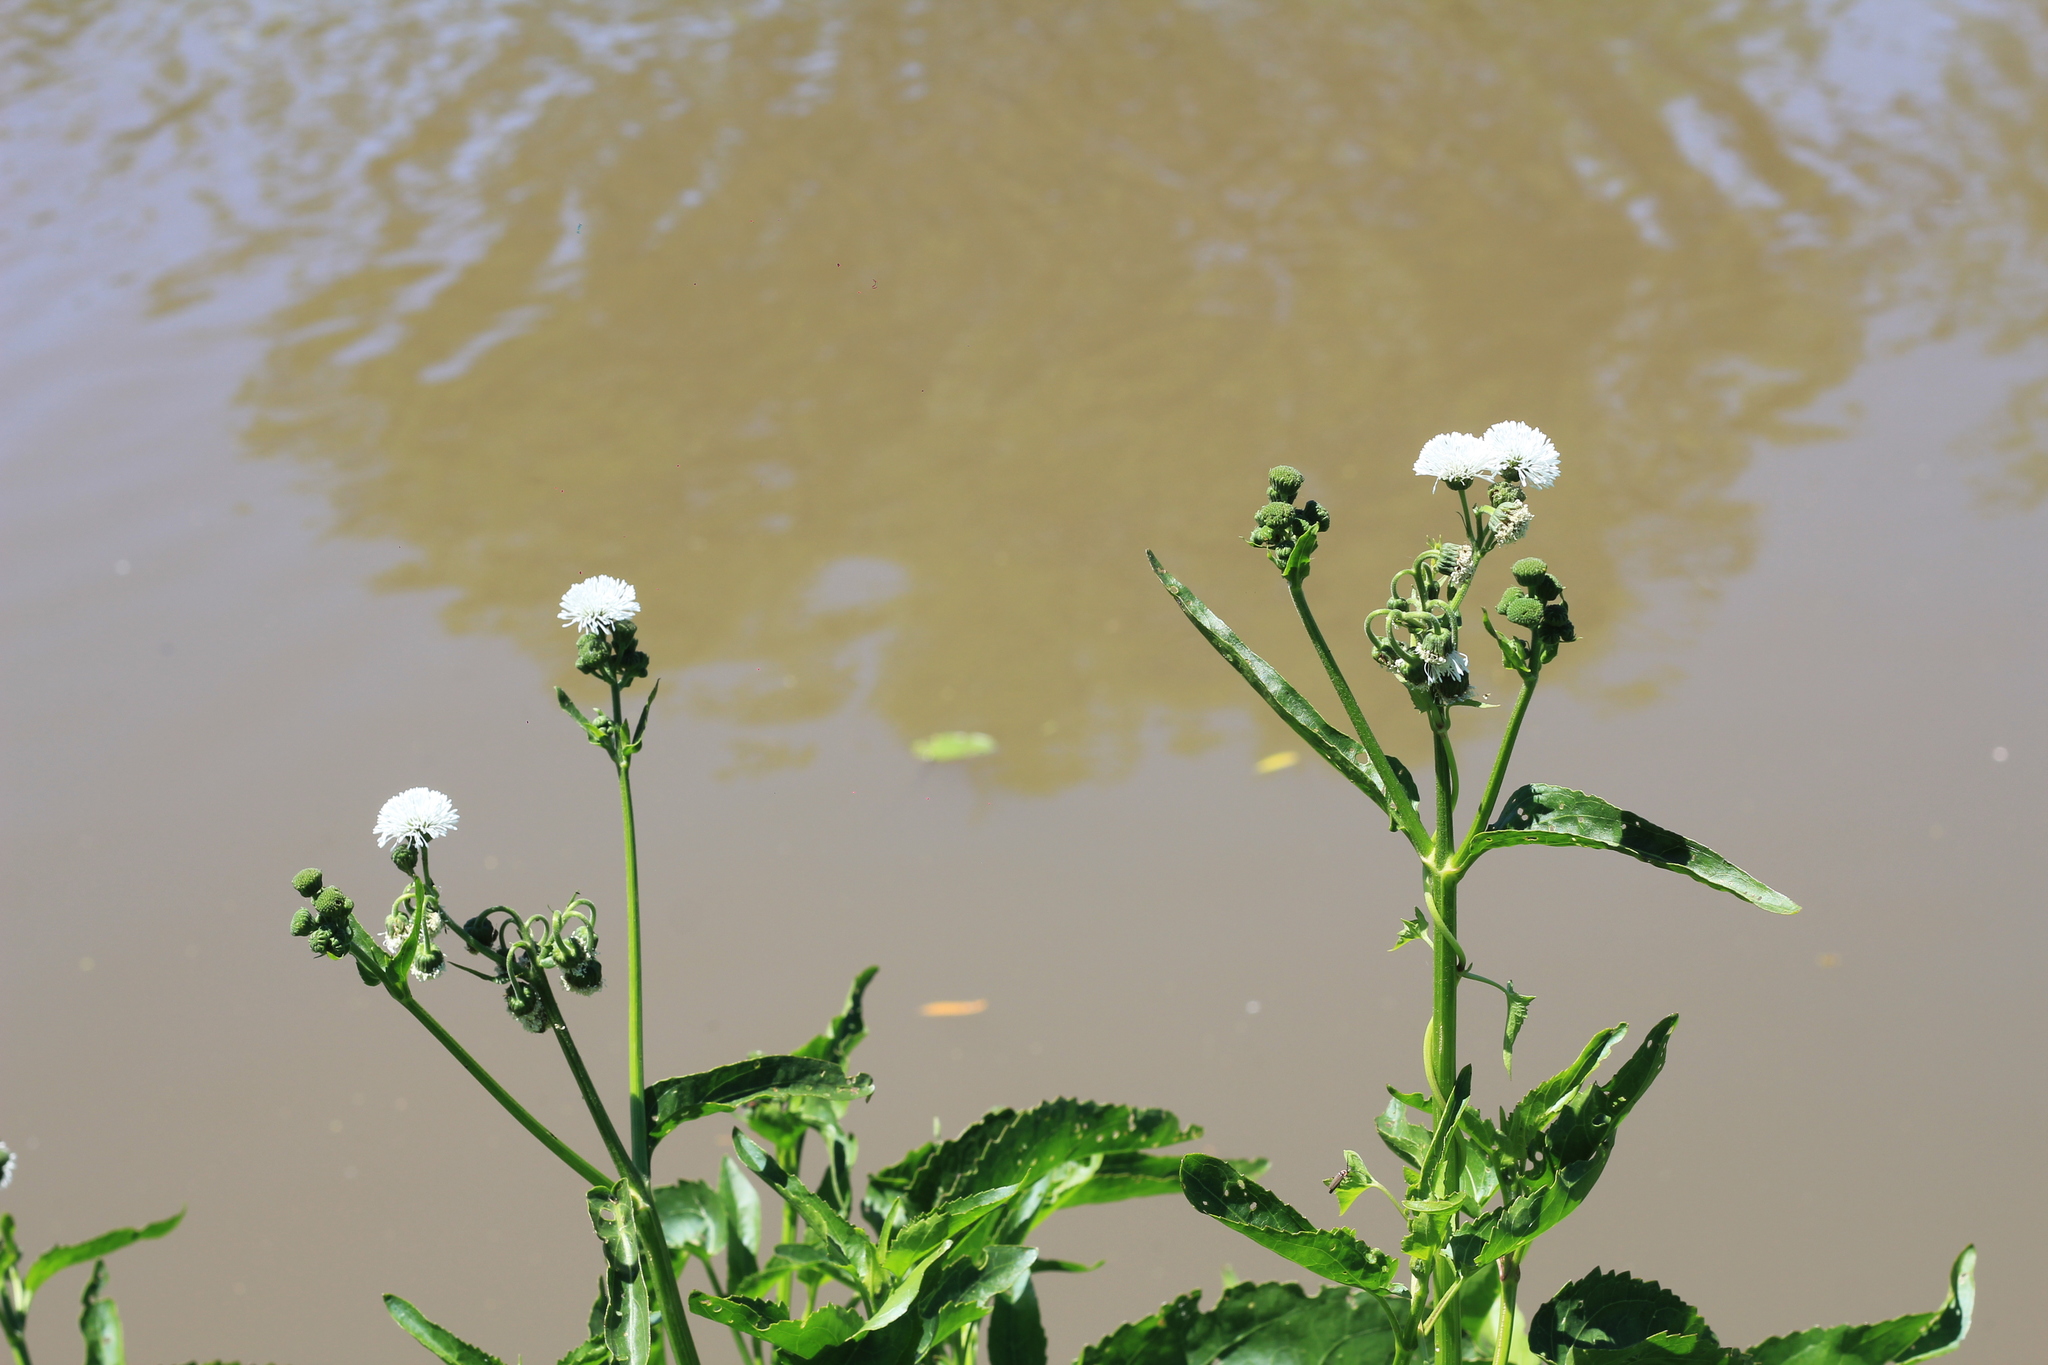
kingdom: Plantae
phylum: Tracheophyta
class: Magnoliopsida
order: Asterales
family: Asteraceae
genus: Gymnocoronis
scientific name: Gymnocoronis spilanthoides
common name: Senegal teaplant
